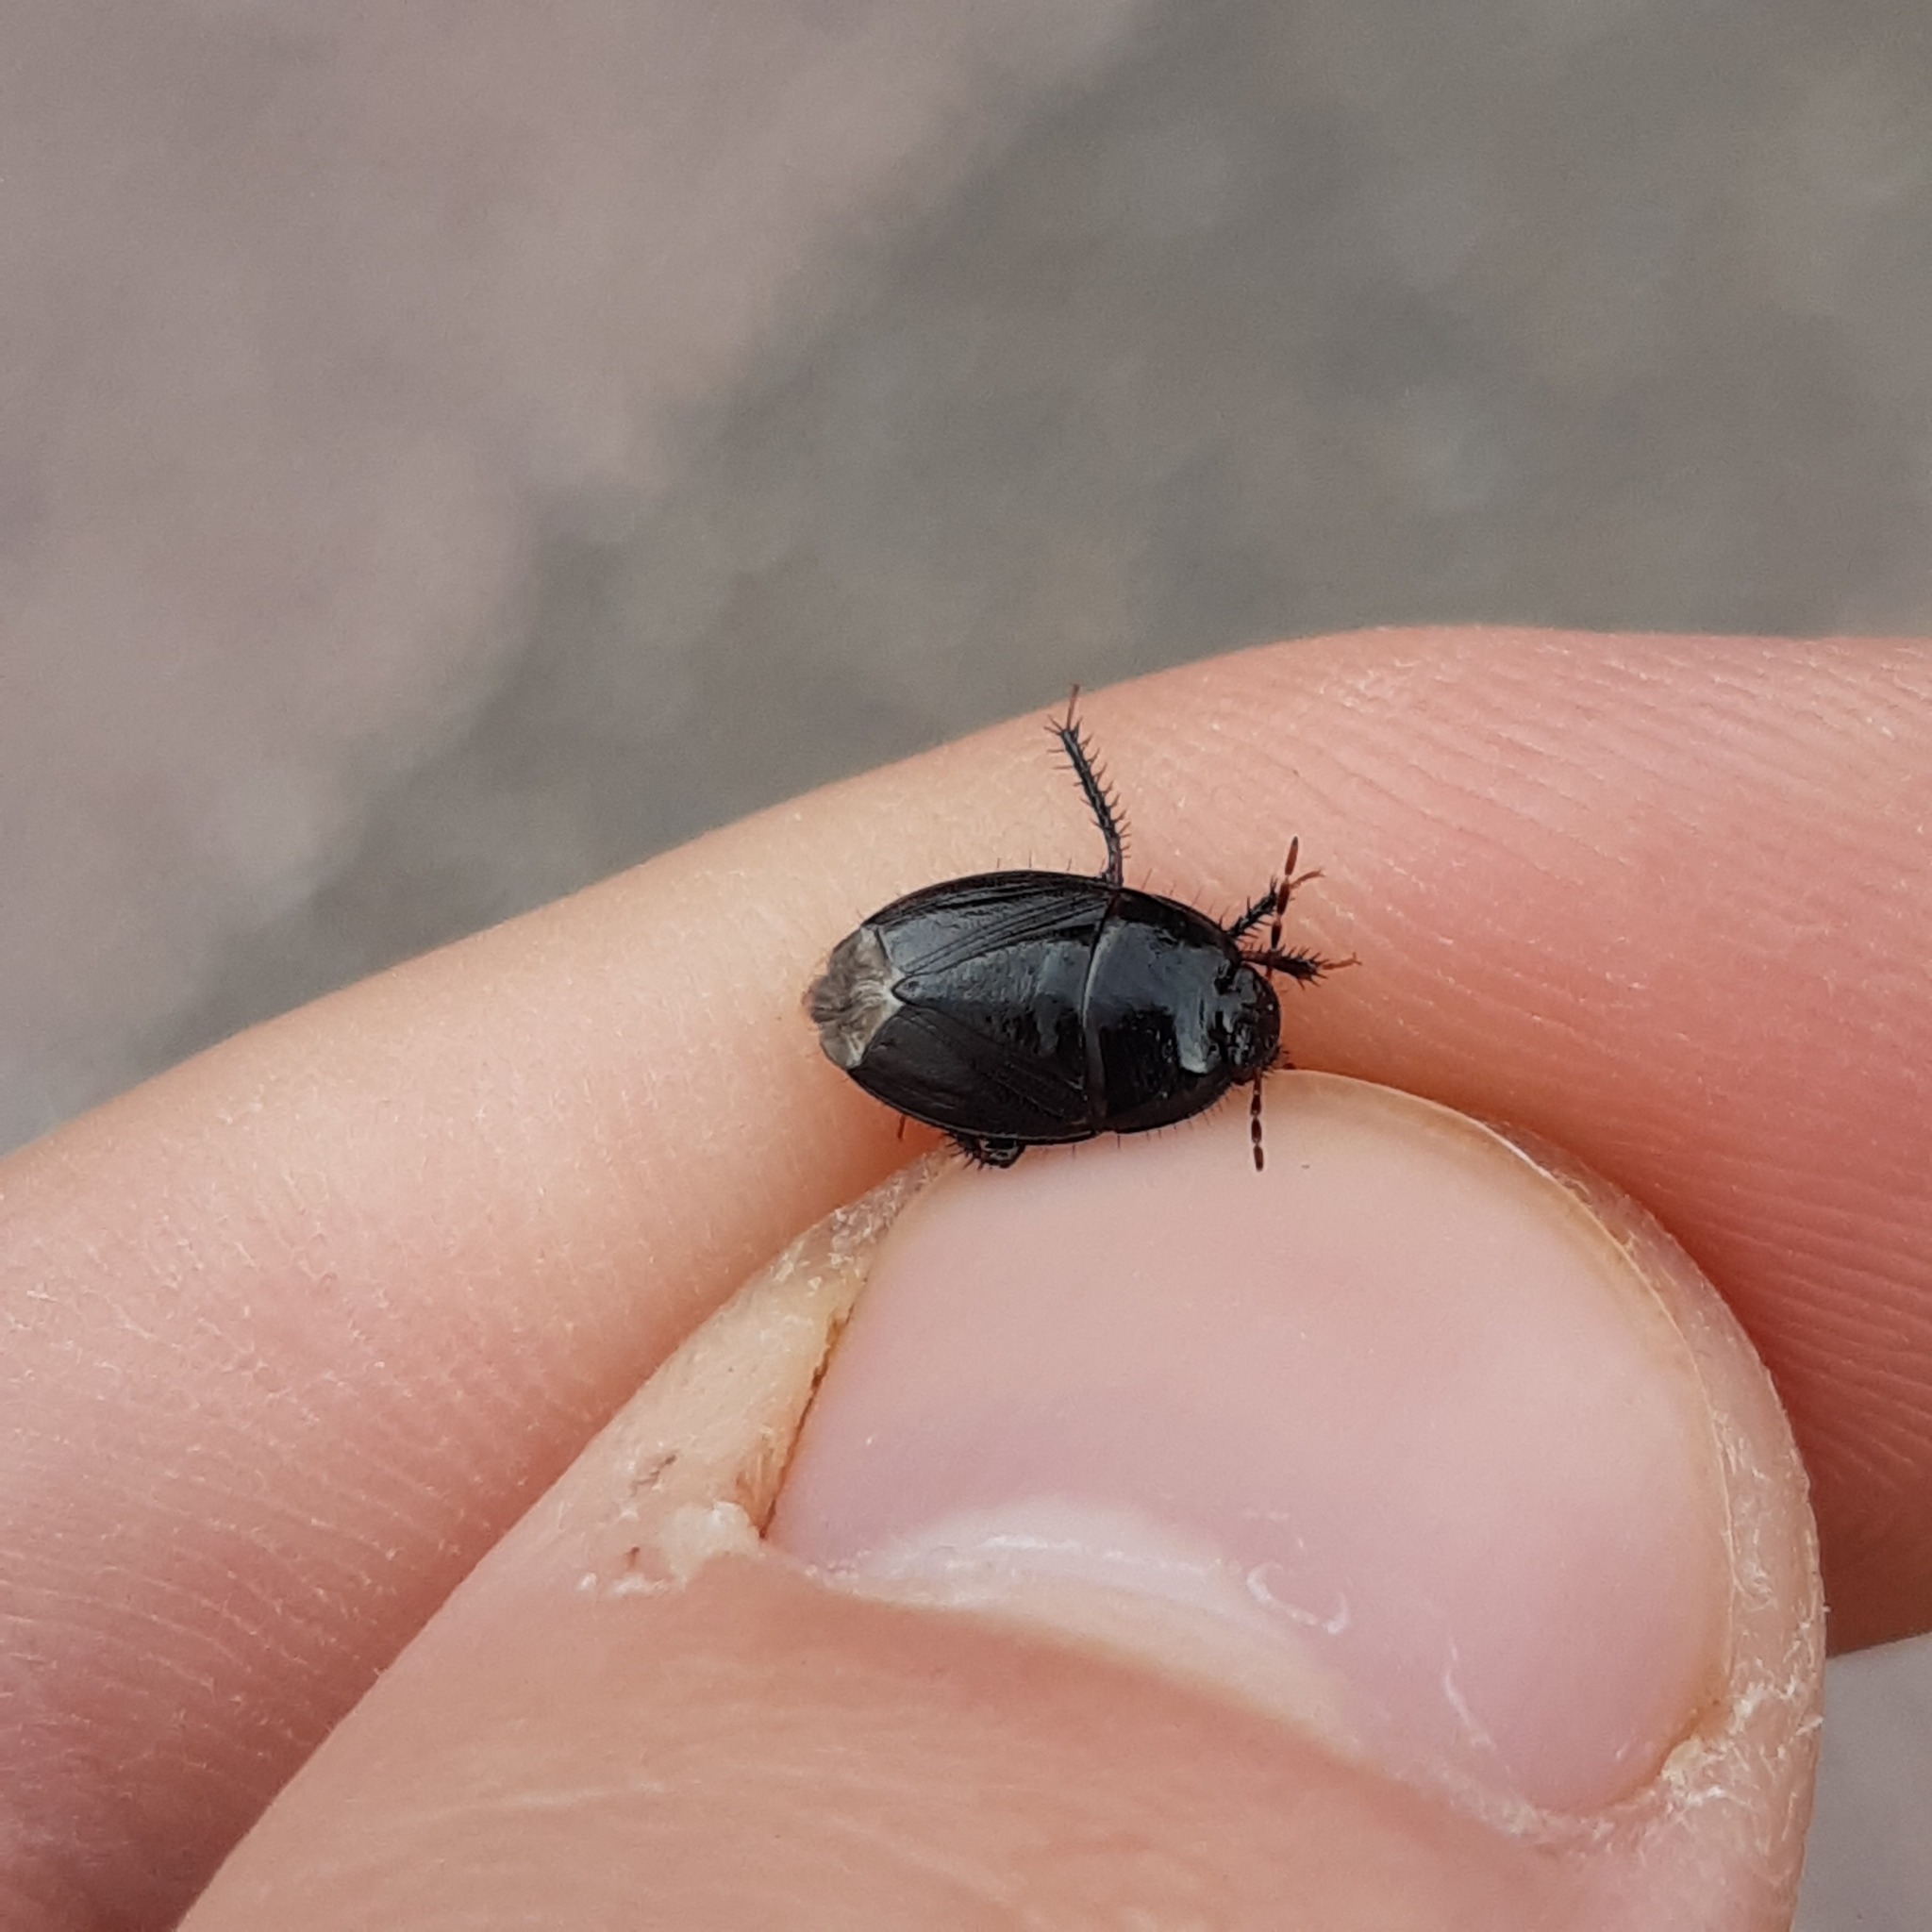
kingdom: Animalia
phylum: Arthropoda
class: Insecta
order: Hemiptera
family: Cydnidae
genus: Macroscytus
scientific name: Macroscytus brunneus
